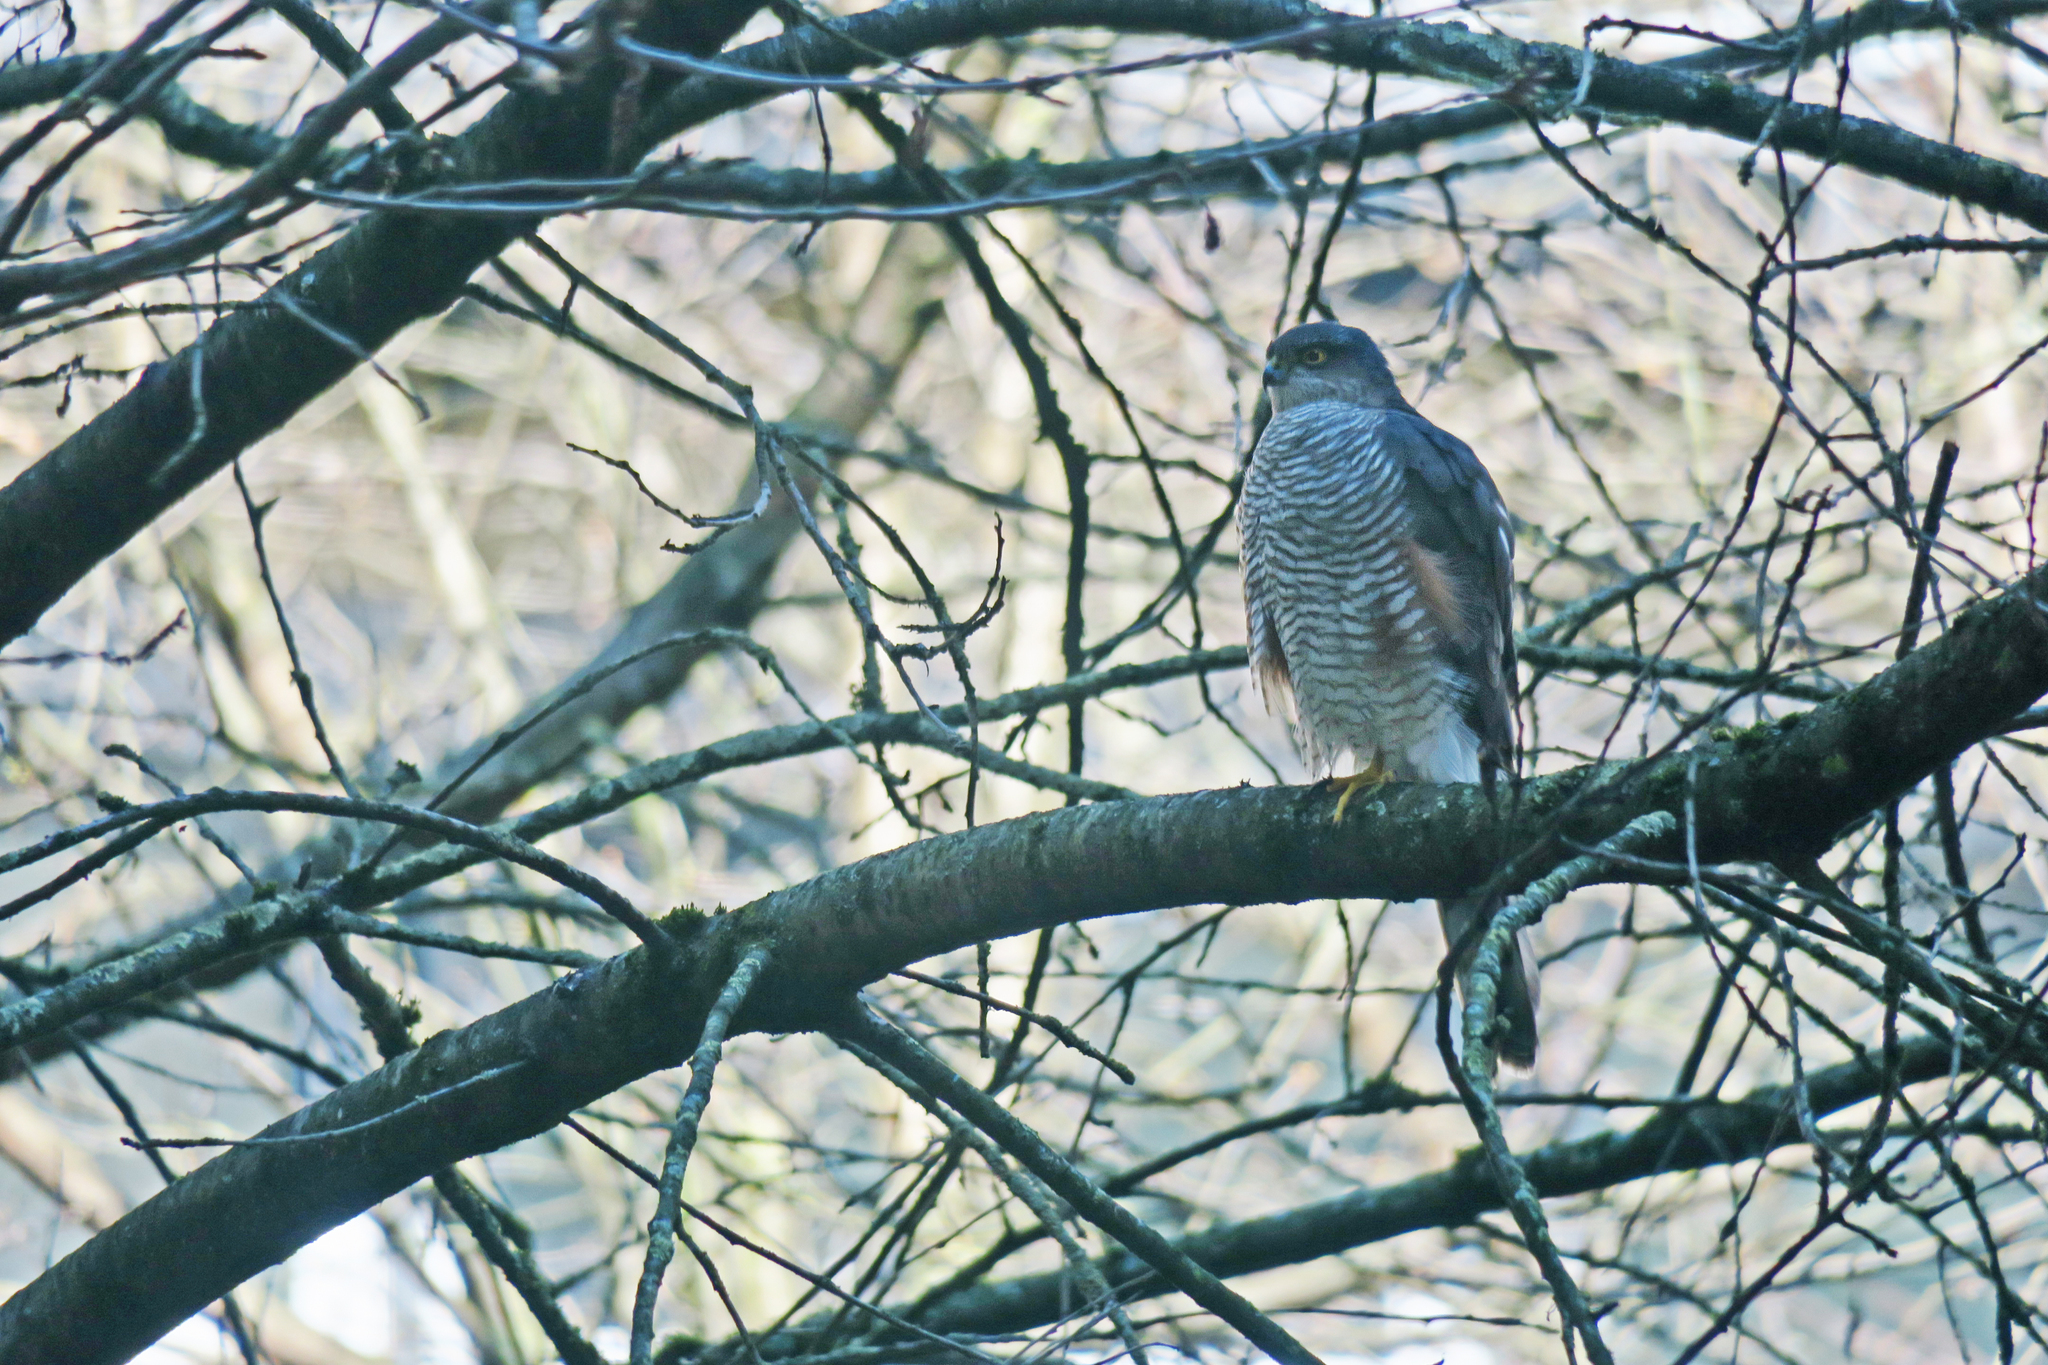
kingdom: Animalia
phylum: Chordata
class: Aves
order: Accipitriformes
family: Accipitridae
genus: Accipiter
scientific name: Accipiter nisus
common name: Eurasian sparrowhawk
